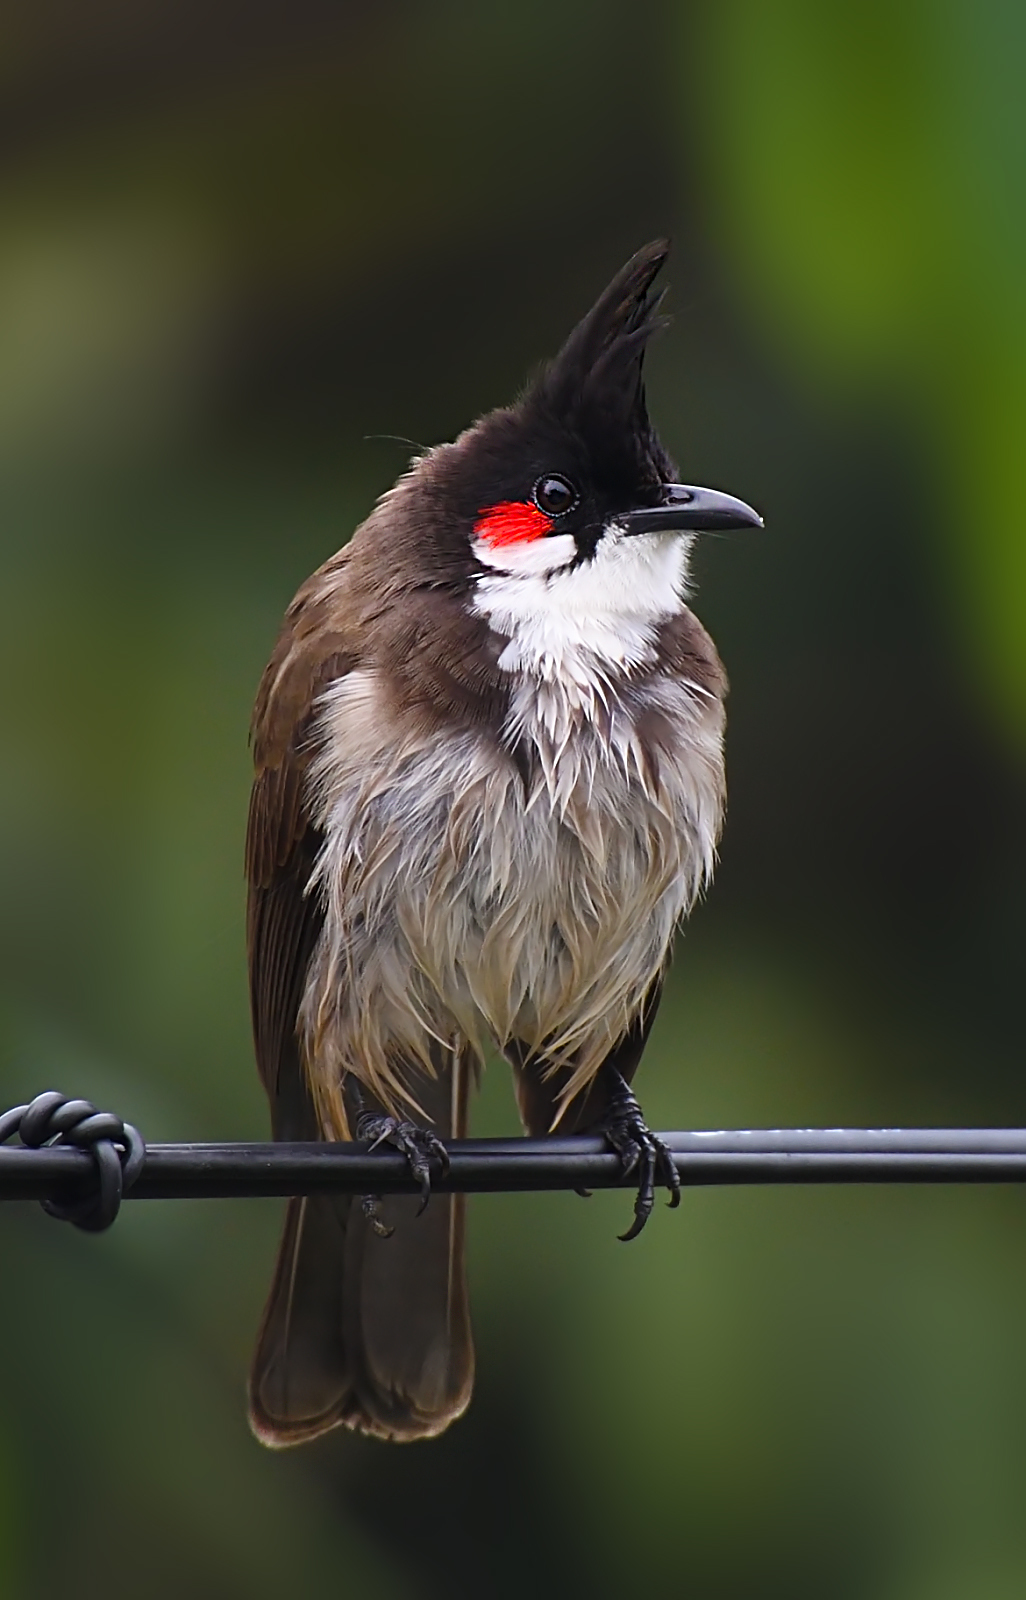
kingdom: Animalia
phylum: Chordata
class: Aves
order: Passeriformes
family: Pycnonotidae
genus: Pycnonotus
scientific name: Pycnonotus jocosus
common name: Red-whiskered bulbul
